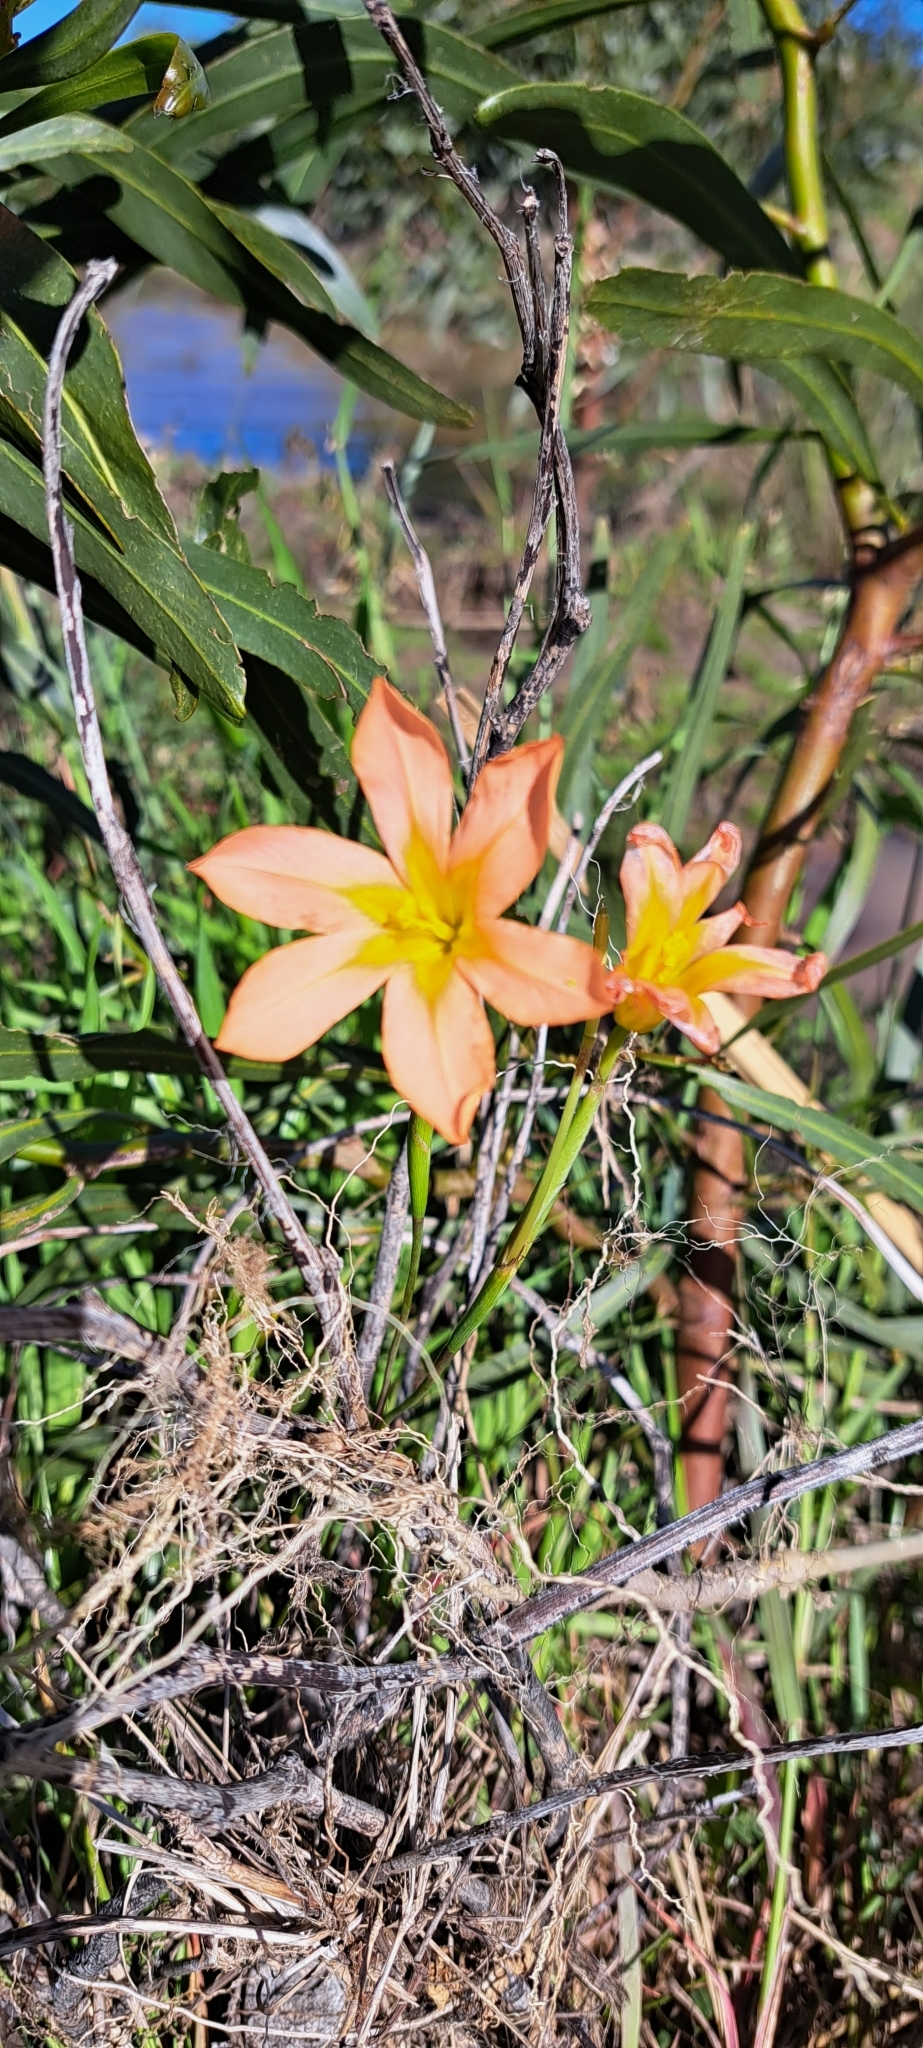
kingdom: Plantae
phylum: Tracheophyta
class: Liliopsida
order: Asparagales
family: Iridaceae
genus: Moraea
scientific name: Moraea miniata
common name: Two-leaf cape-tulip
